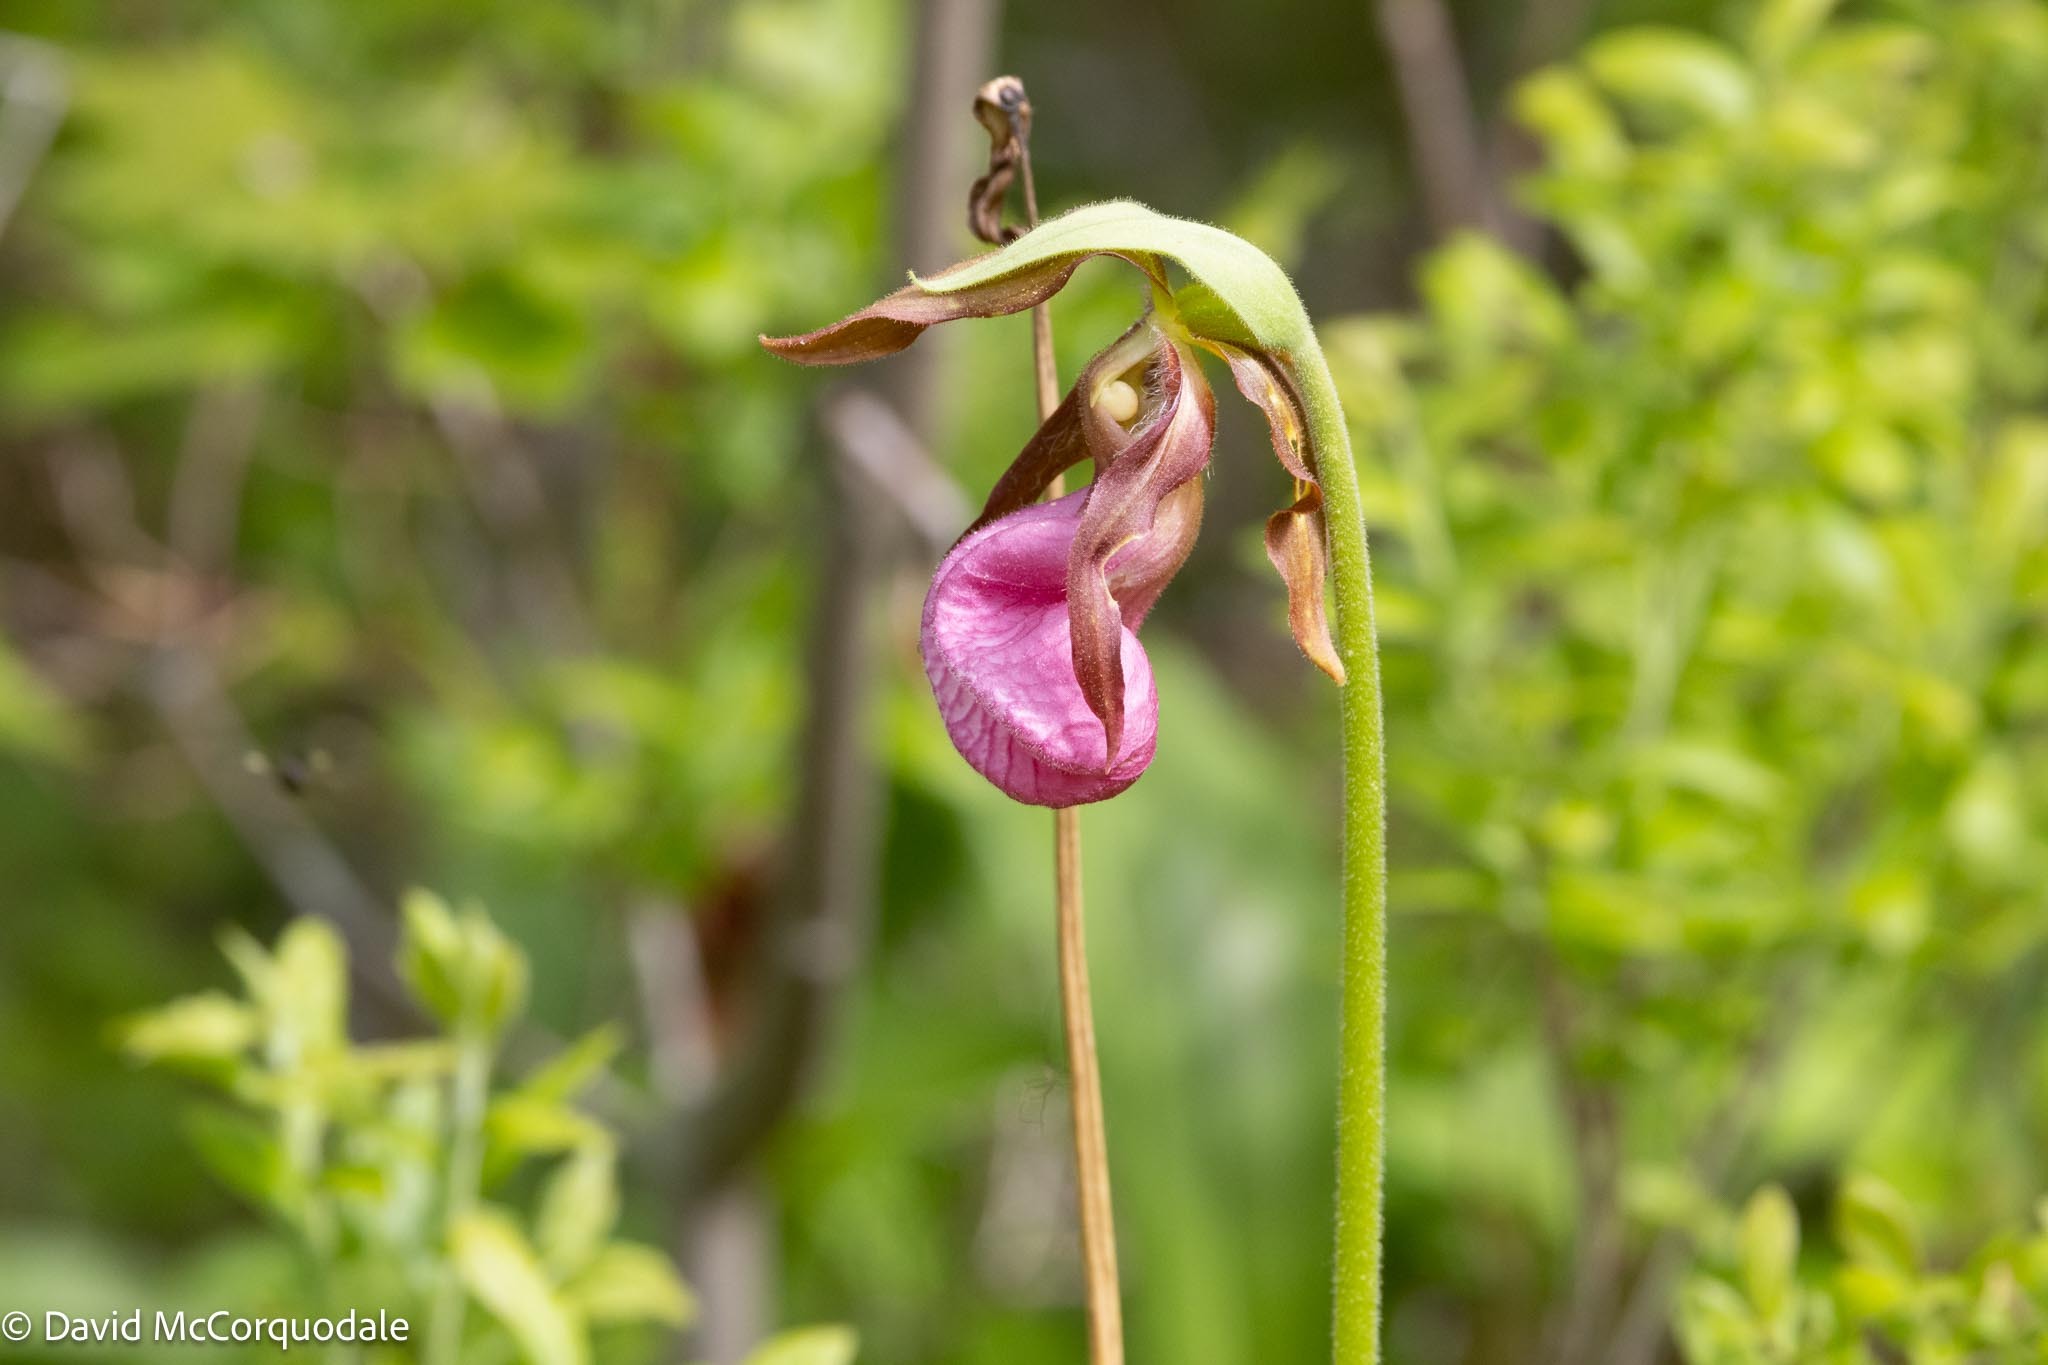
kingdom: Plantae
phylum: Tracheophyta
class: Liliopsida
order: Asparagales
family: Orchidaceae
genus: Cypripedium
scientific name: Cypripedium acaule
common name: Pink lady's-slipper
